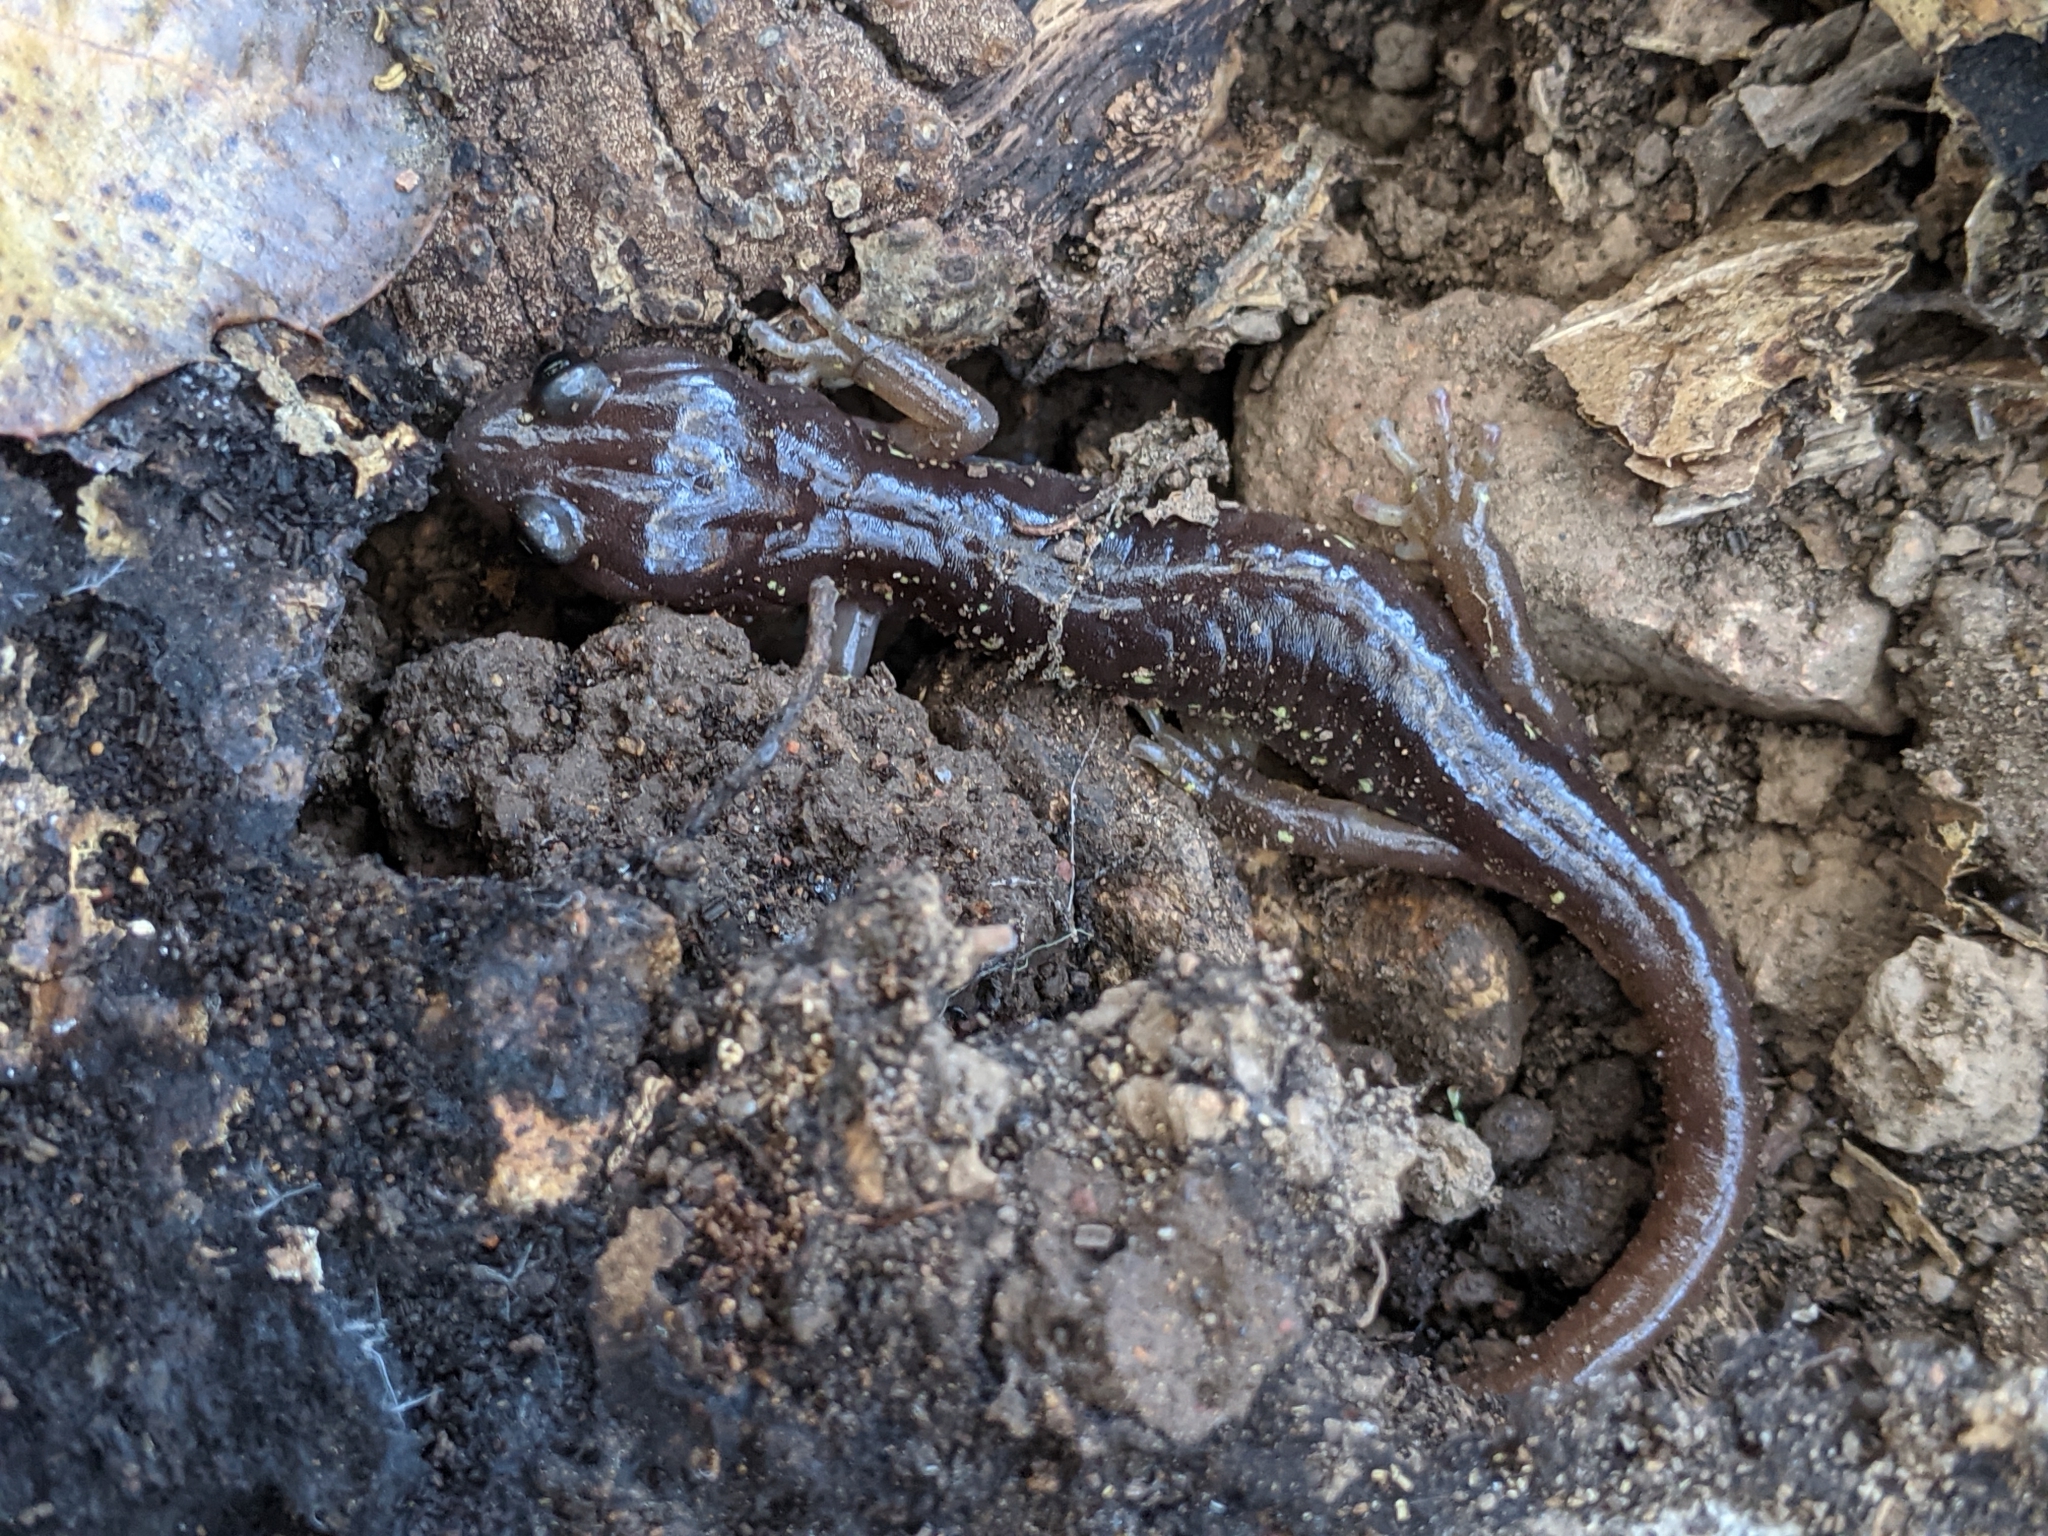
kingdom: Animalia
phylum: Chordata
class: Amphibia
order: Caudata
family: Plethodontidae
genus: Aneides
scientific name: Aneides lugubris
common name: Arboreal salamander
